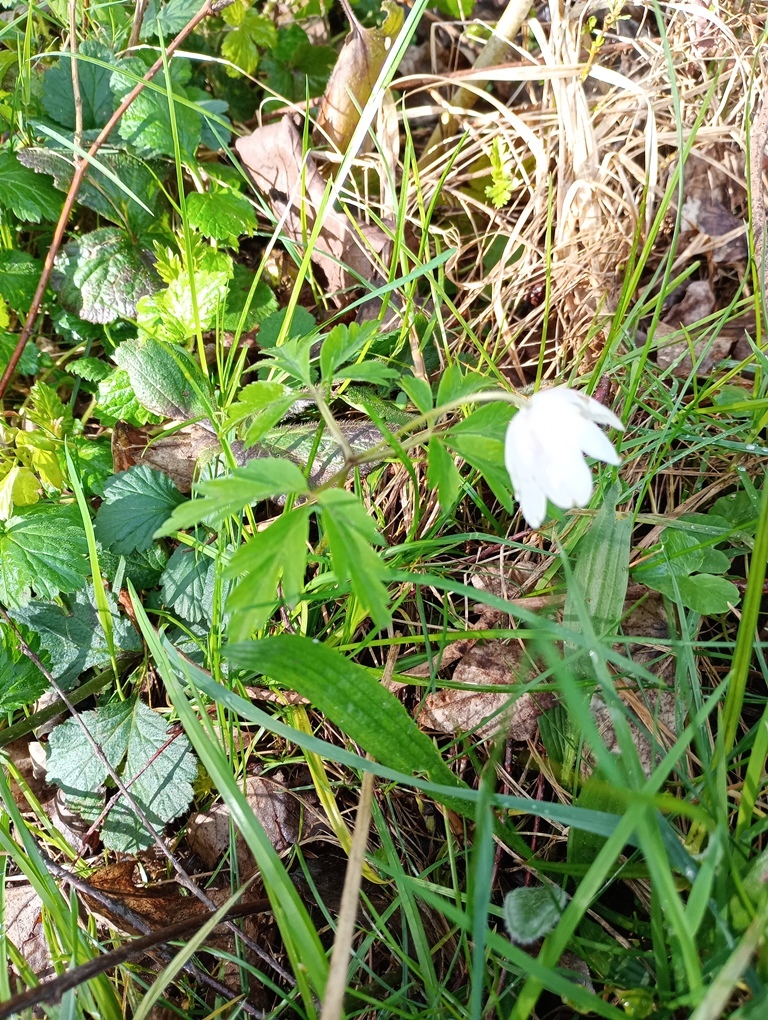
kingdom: Plantae
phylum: Tracheophyta
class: Magnoliopsida
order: Ranunculales
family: Ranunculaceae
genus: Anemone
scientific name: Anemone nemorosa
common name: Wood anemone
